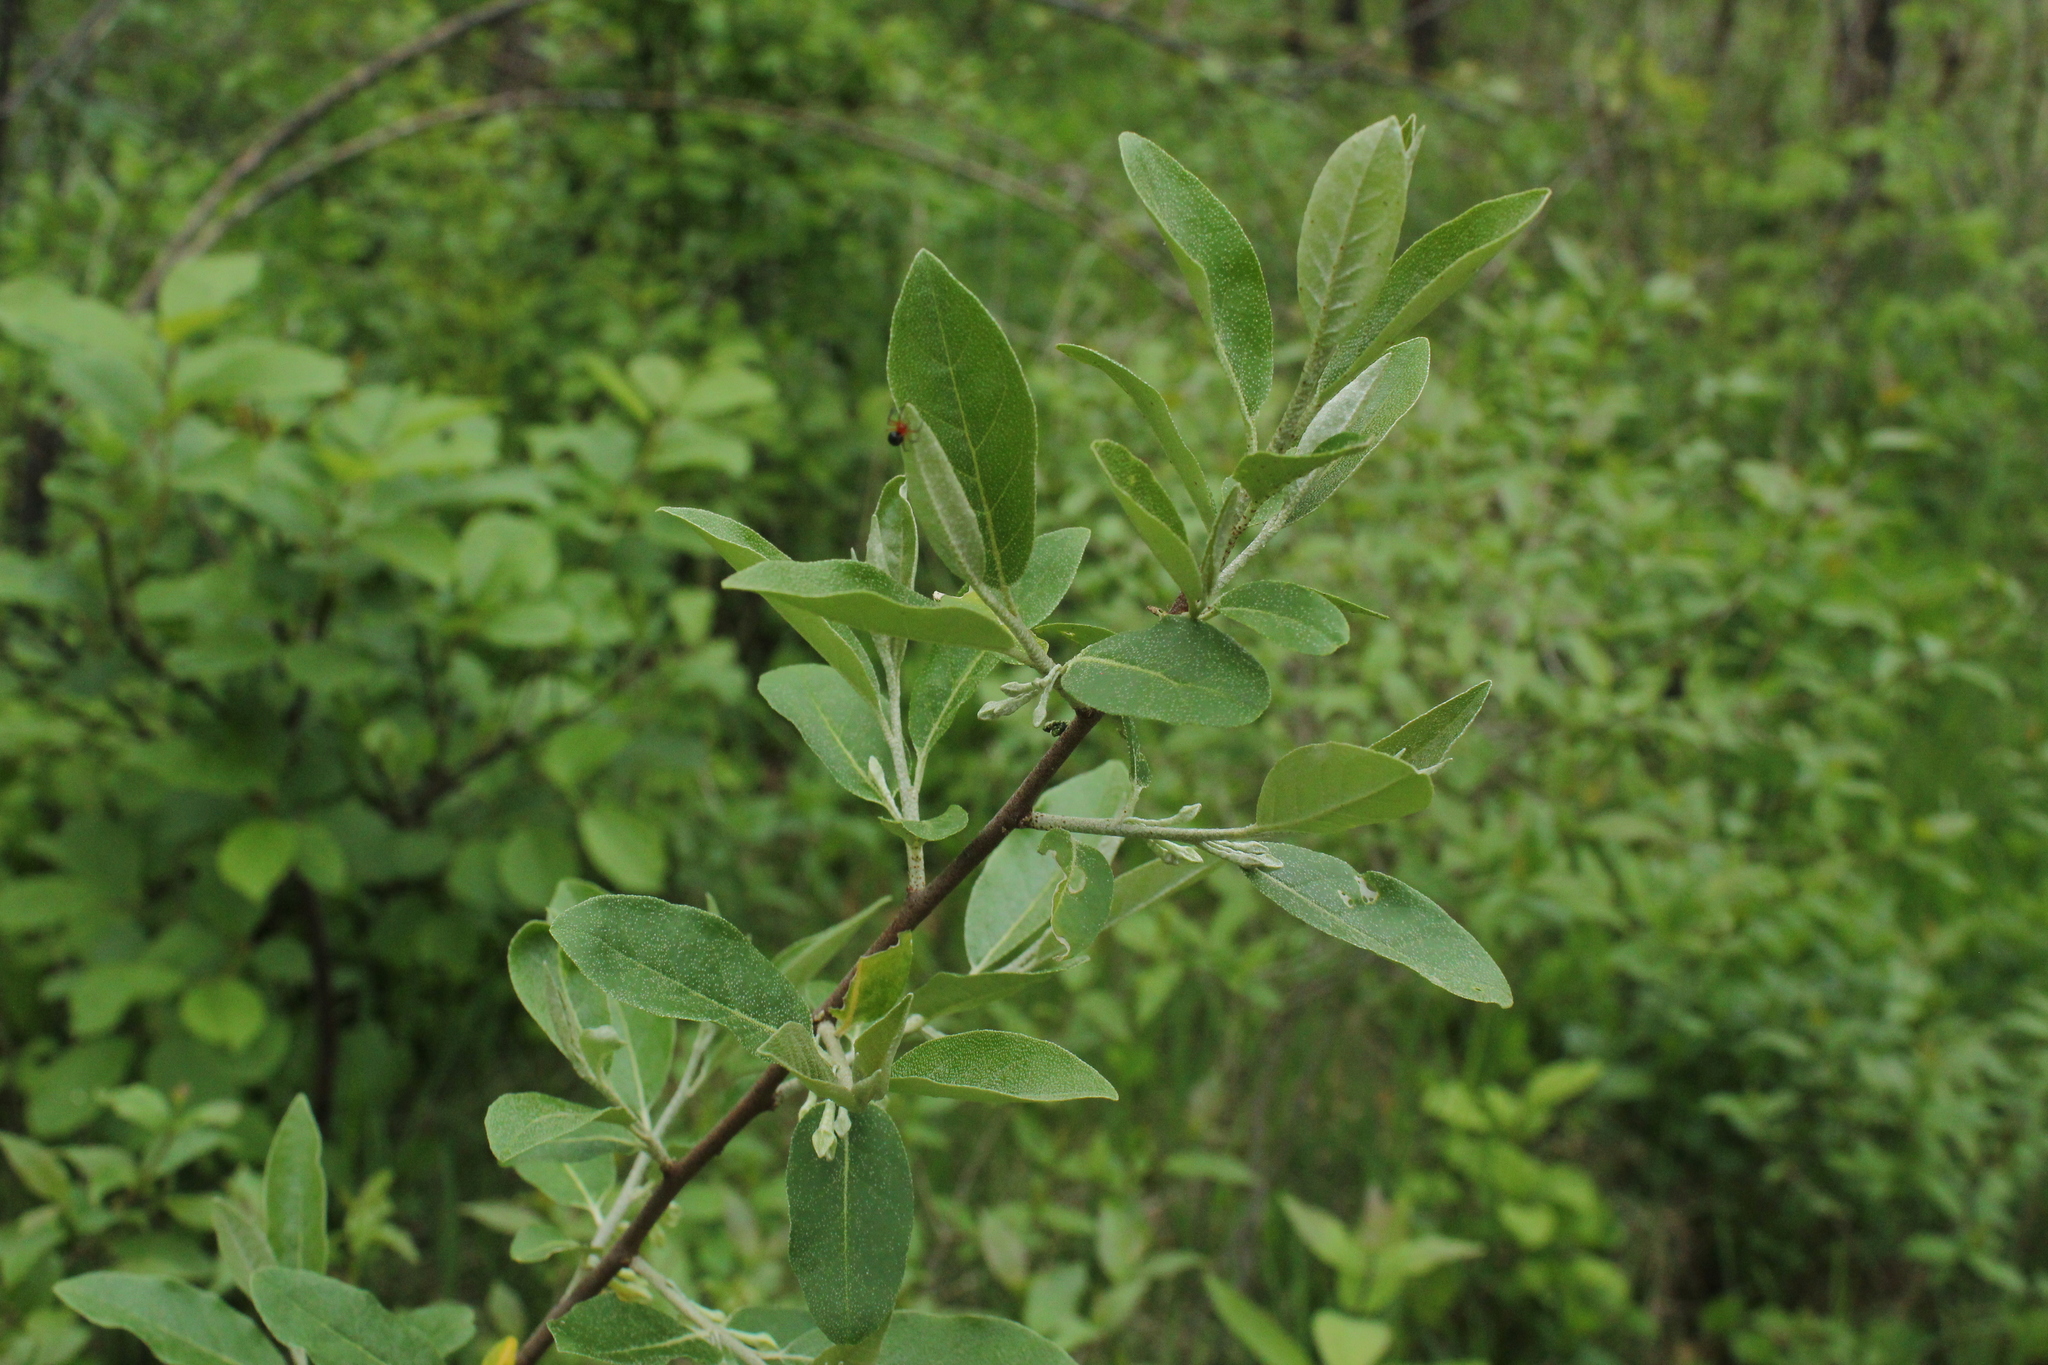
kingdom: Plantae
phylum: Tracheophyta
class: Magnoliopsida
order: Rosales
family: Elaeagnaceae
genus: Elaeagnus
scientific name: Elaeagnus umbellata
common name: Autumn olive
